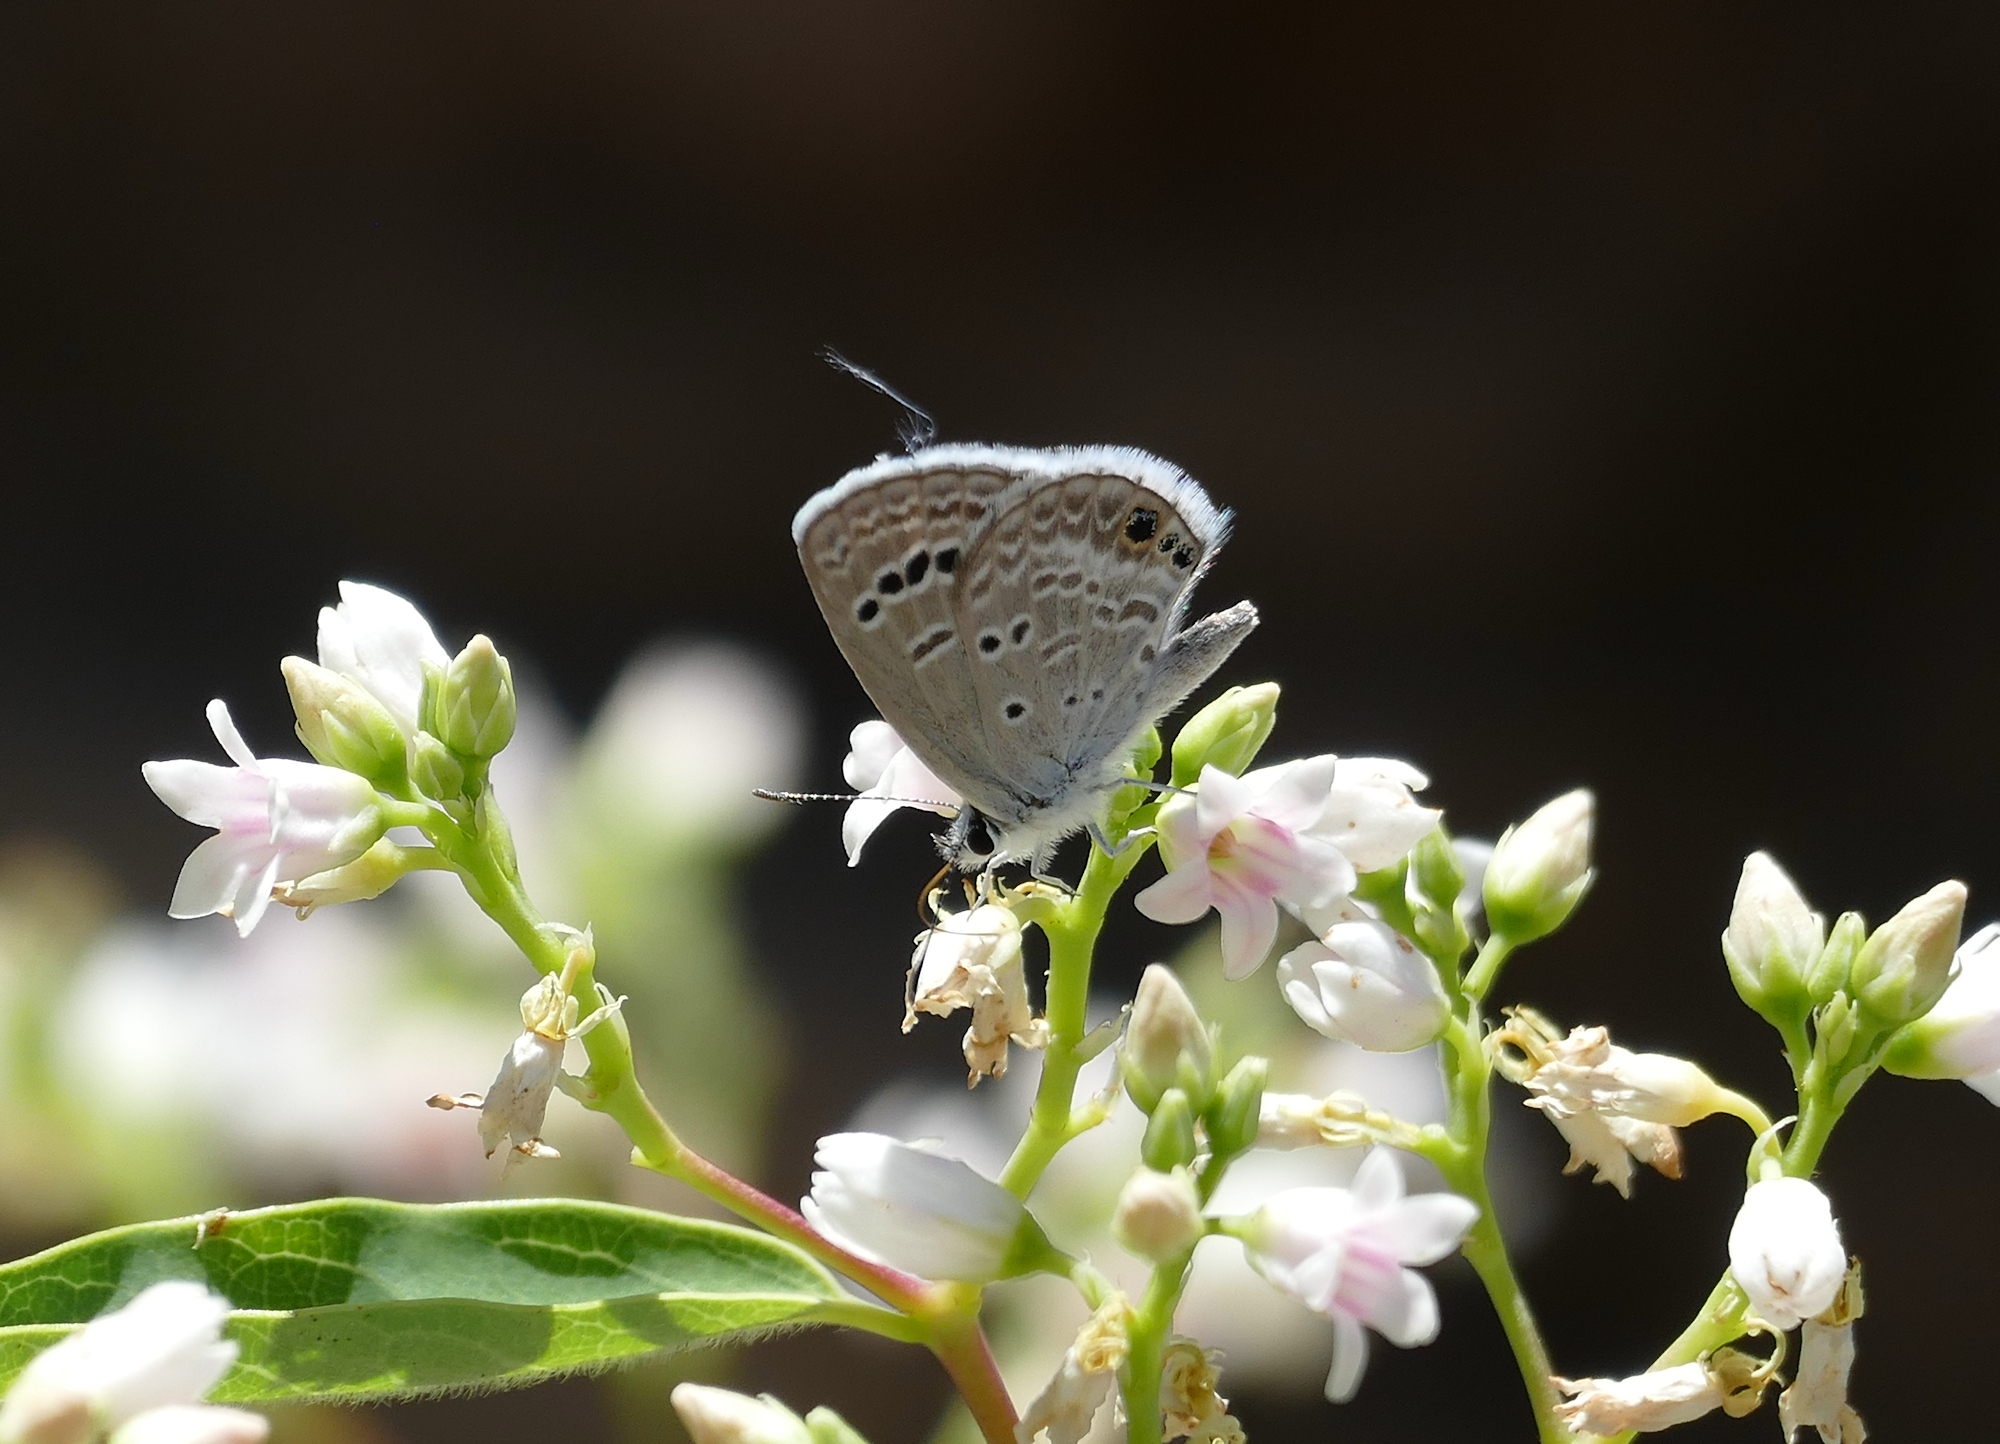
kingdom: Animalia
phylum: Arthropoda
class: Insecta
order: Lepidoptera
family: Lycaenidae
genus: Echinargus
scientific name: Echinargus isola
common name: Reakirt's blue
